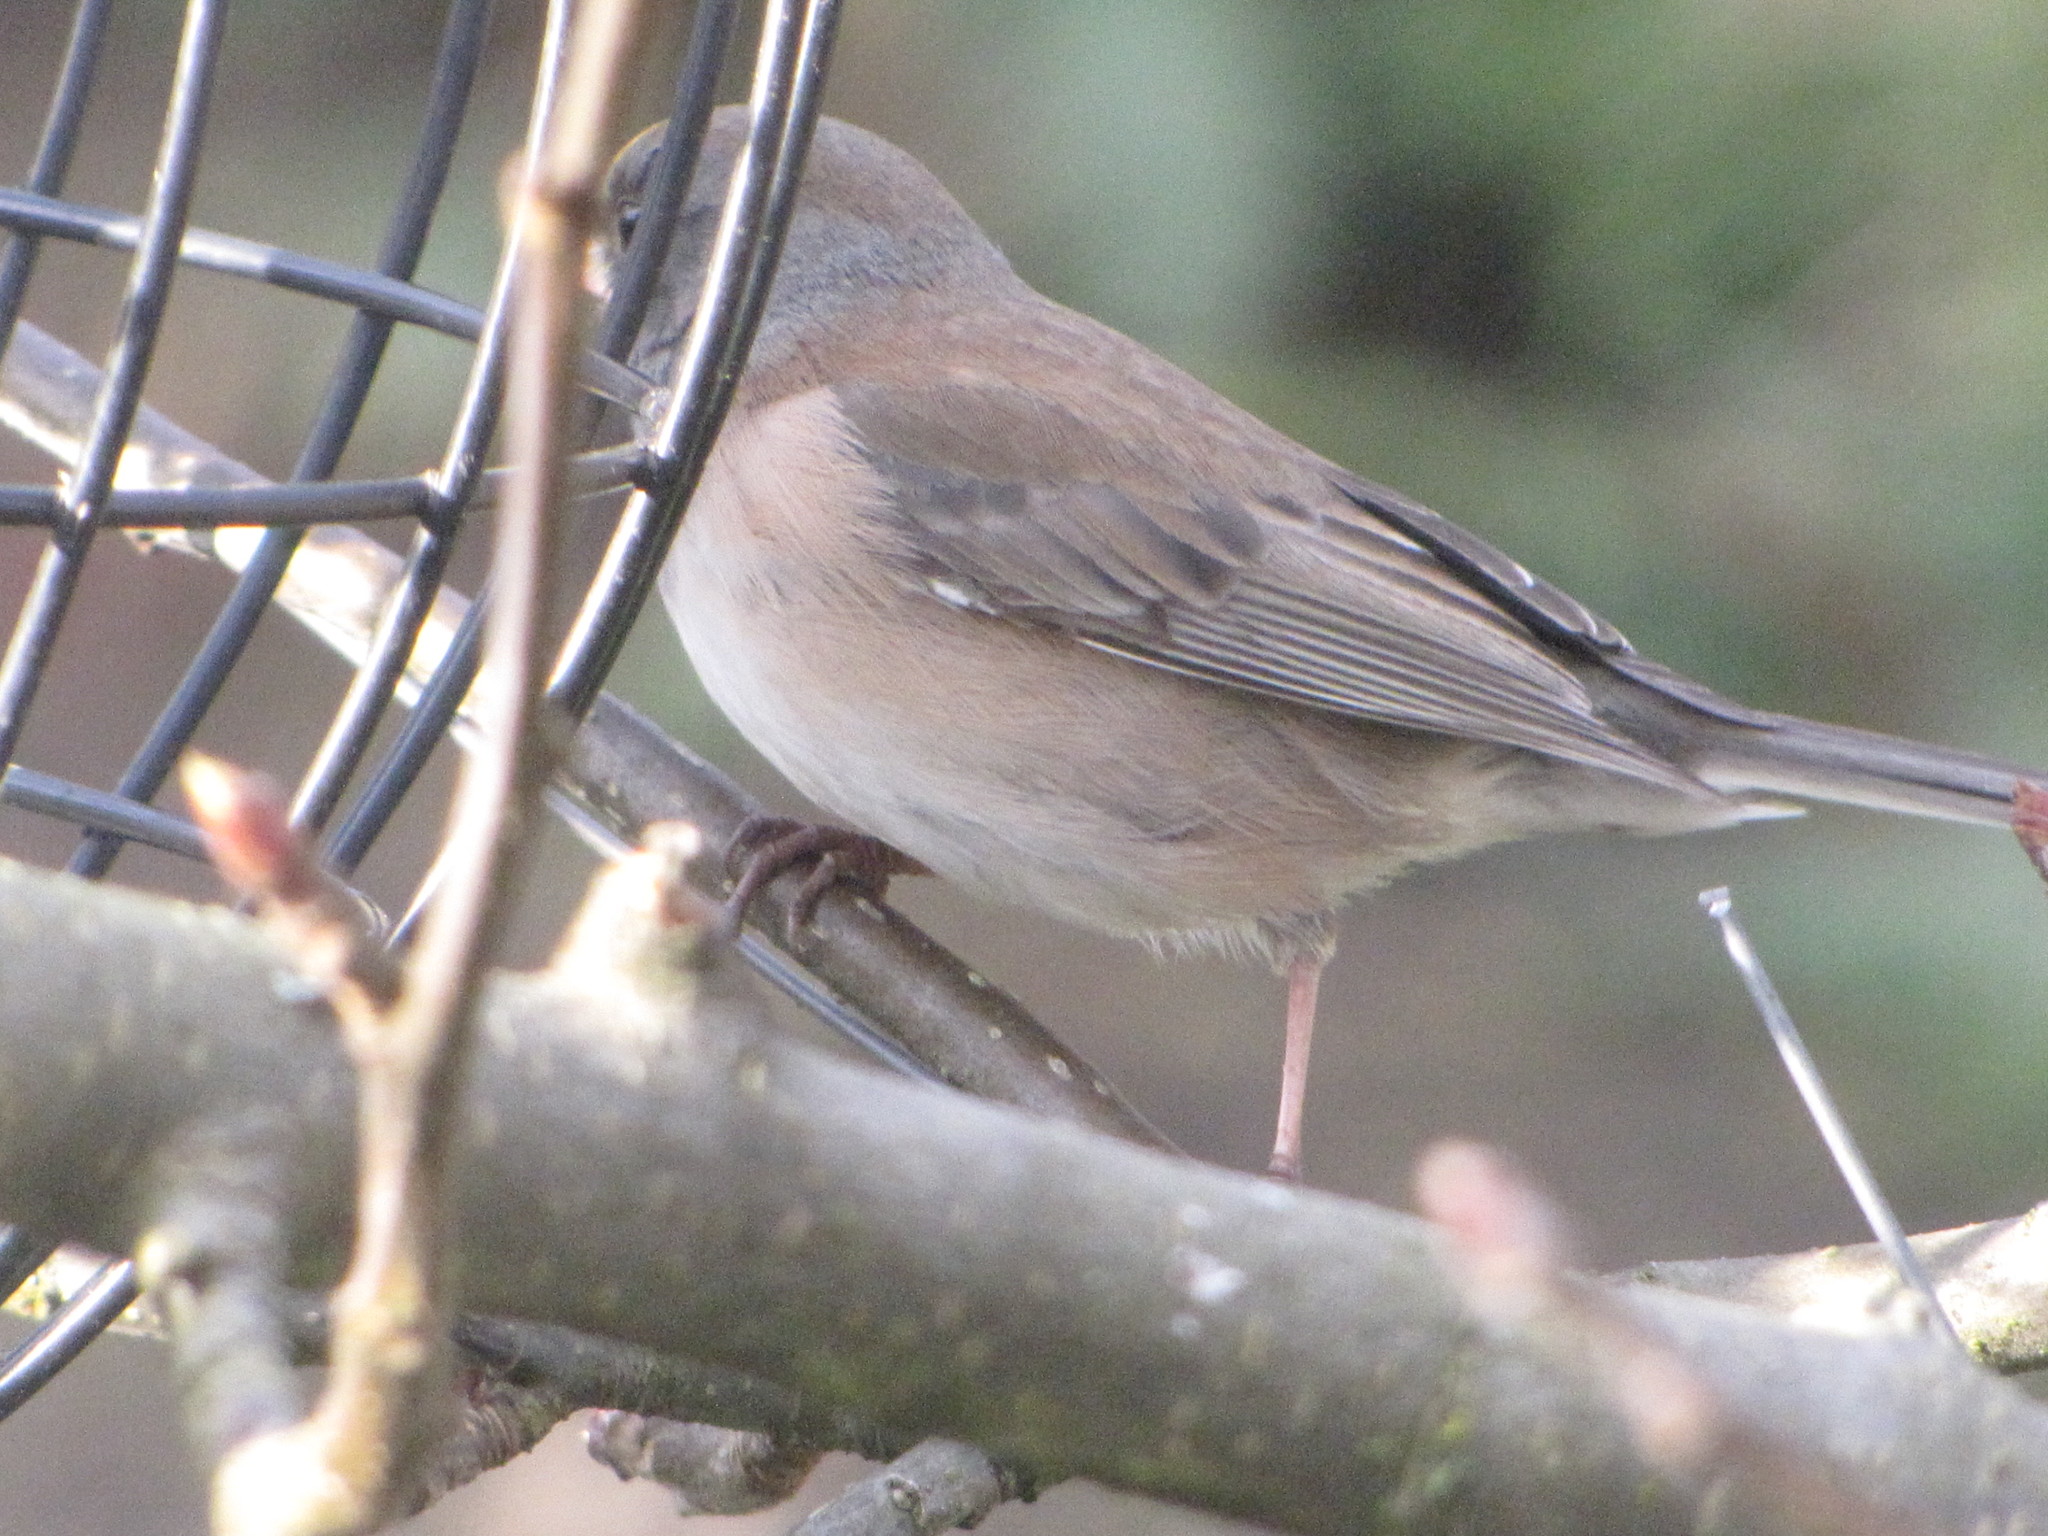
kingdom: Animalia
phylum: Chordata
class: Aves
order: Passeriformes
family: Passerellidae
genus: Junco
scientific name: Junco hyemalis
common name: Dark-eyed junco
